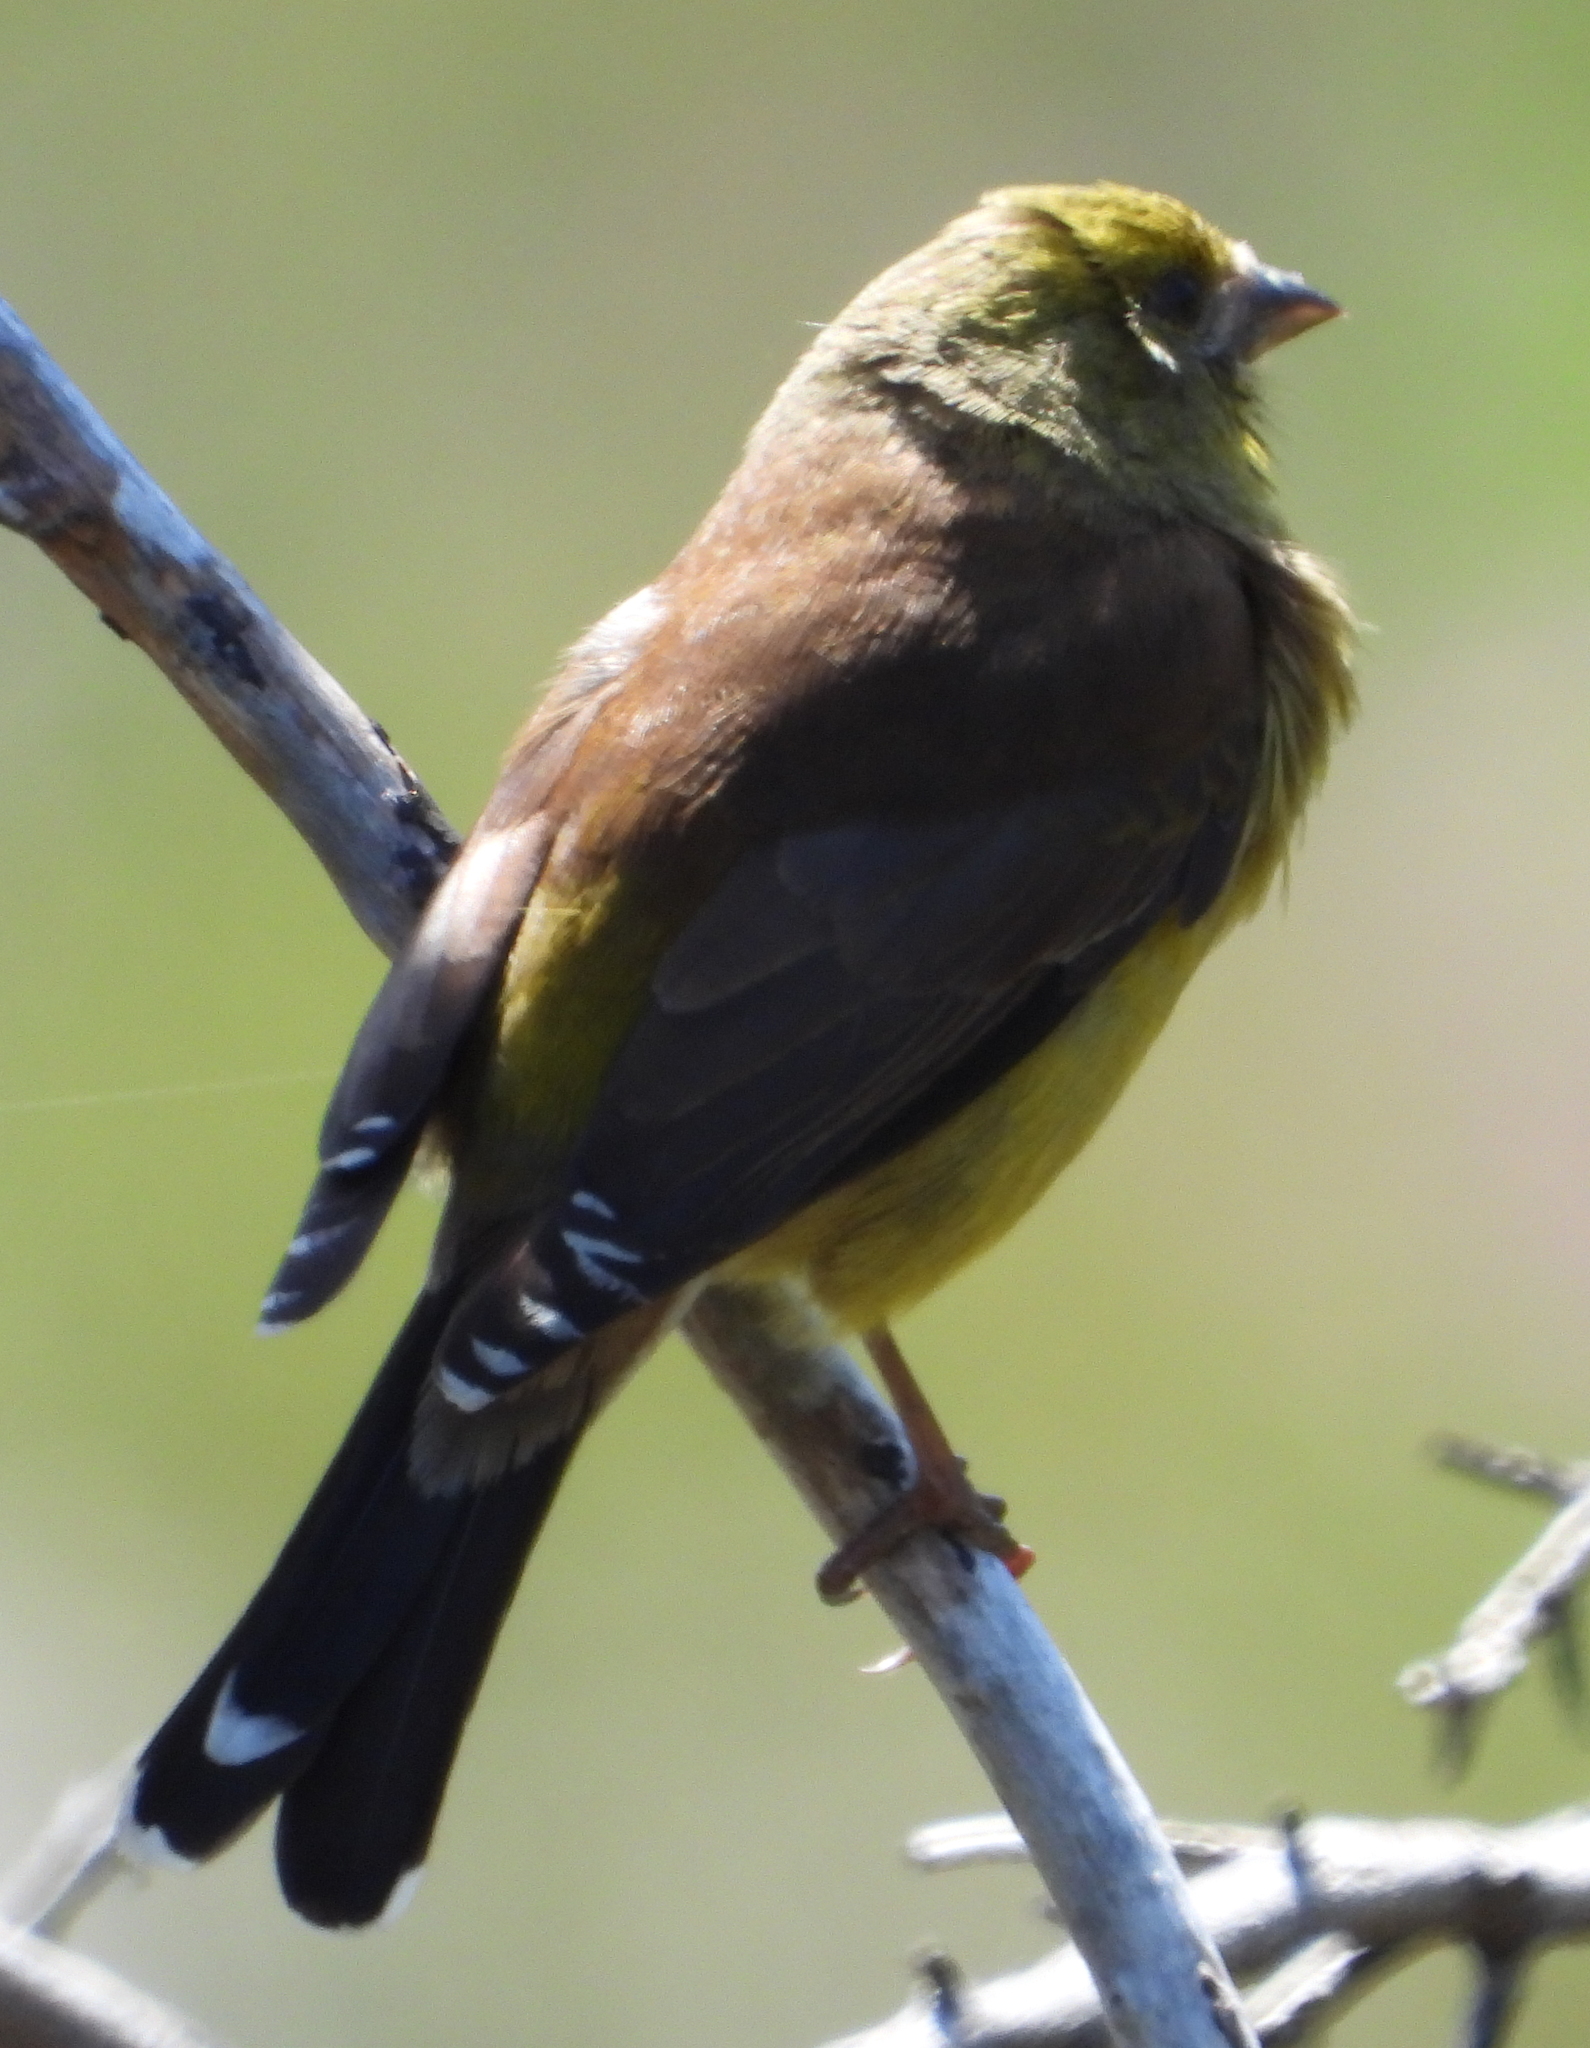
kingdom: Animalia
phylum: Chordata
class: Aves
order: Passeriformes
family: Fringillidae
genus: Crithagra
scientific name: Crithagra totta
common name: Cape siskin
